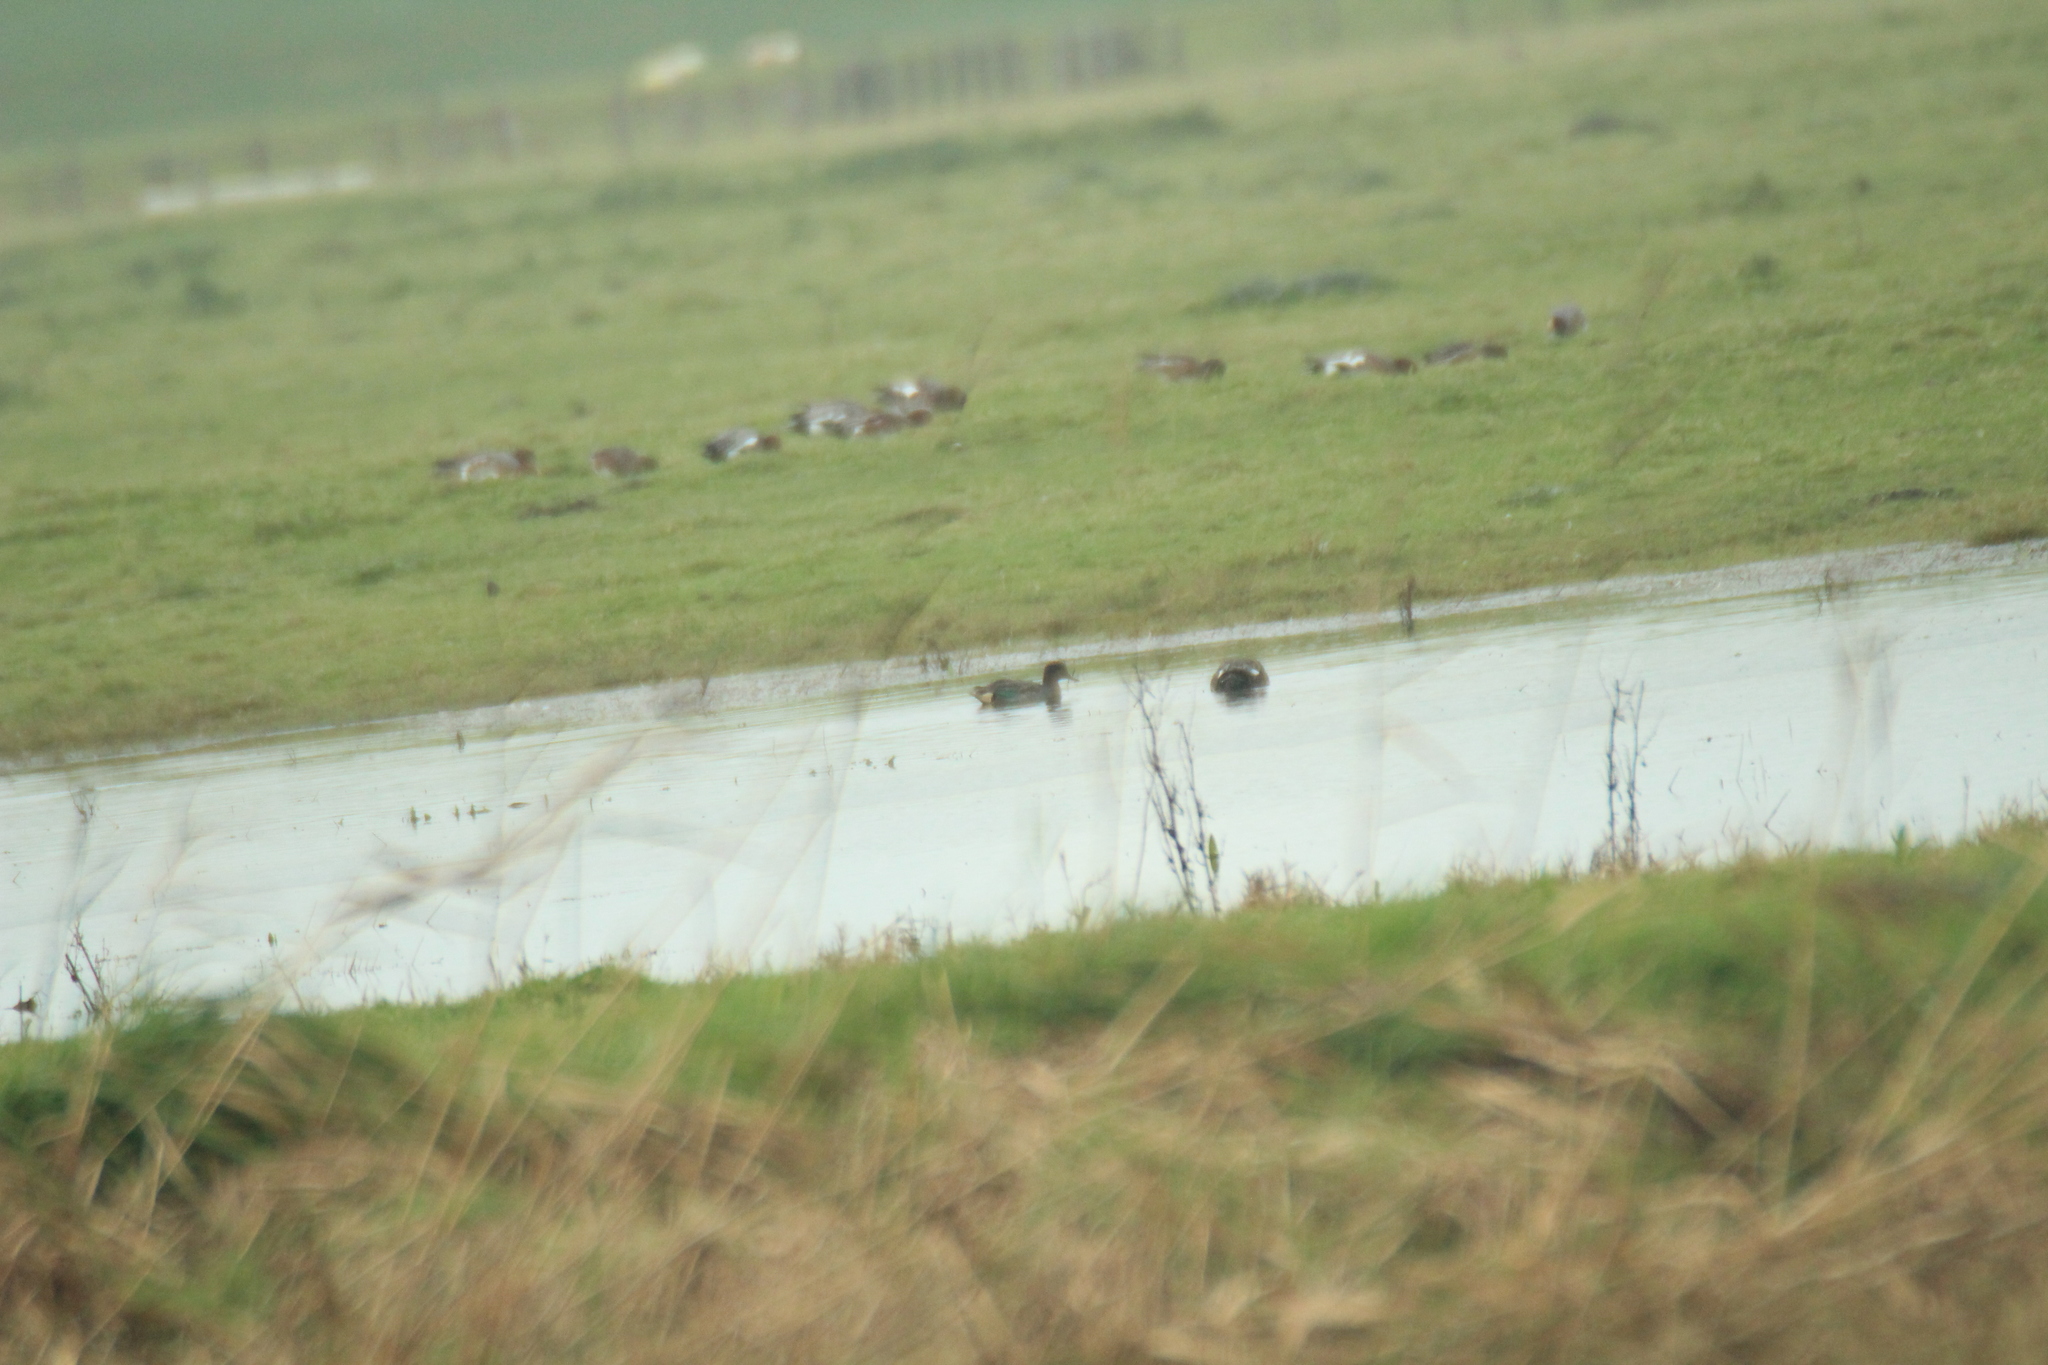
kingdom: Animalia
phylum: Chordata
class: Aves
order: Anseriformes
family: Anatidae
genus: Anas
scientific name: Anas crecca
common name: Eurasian teal
